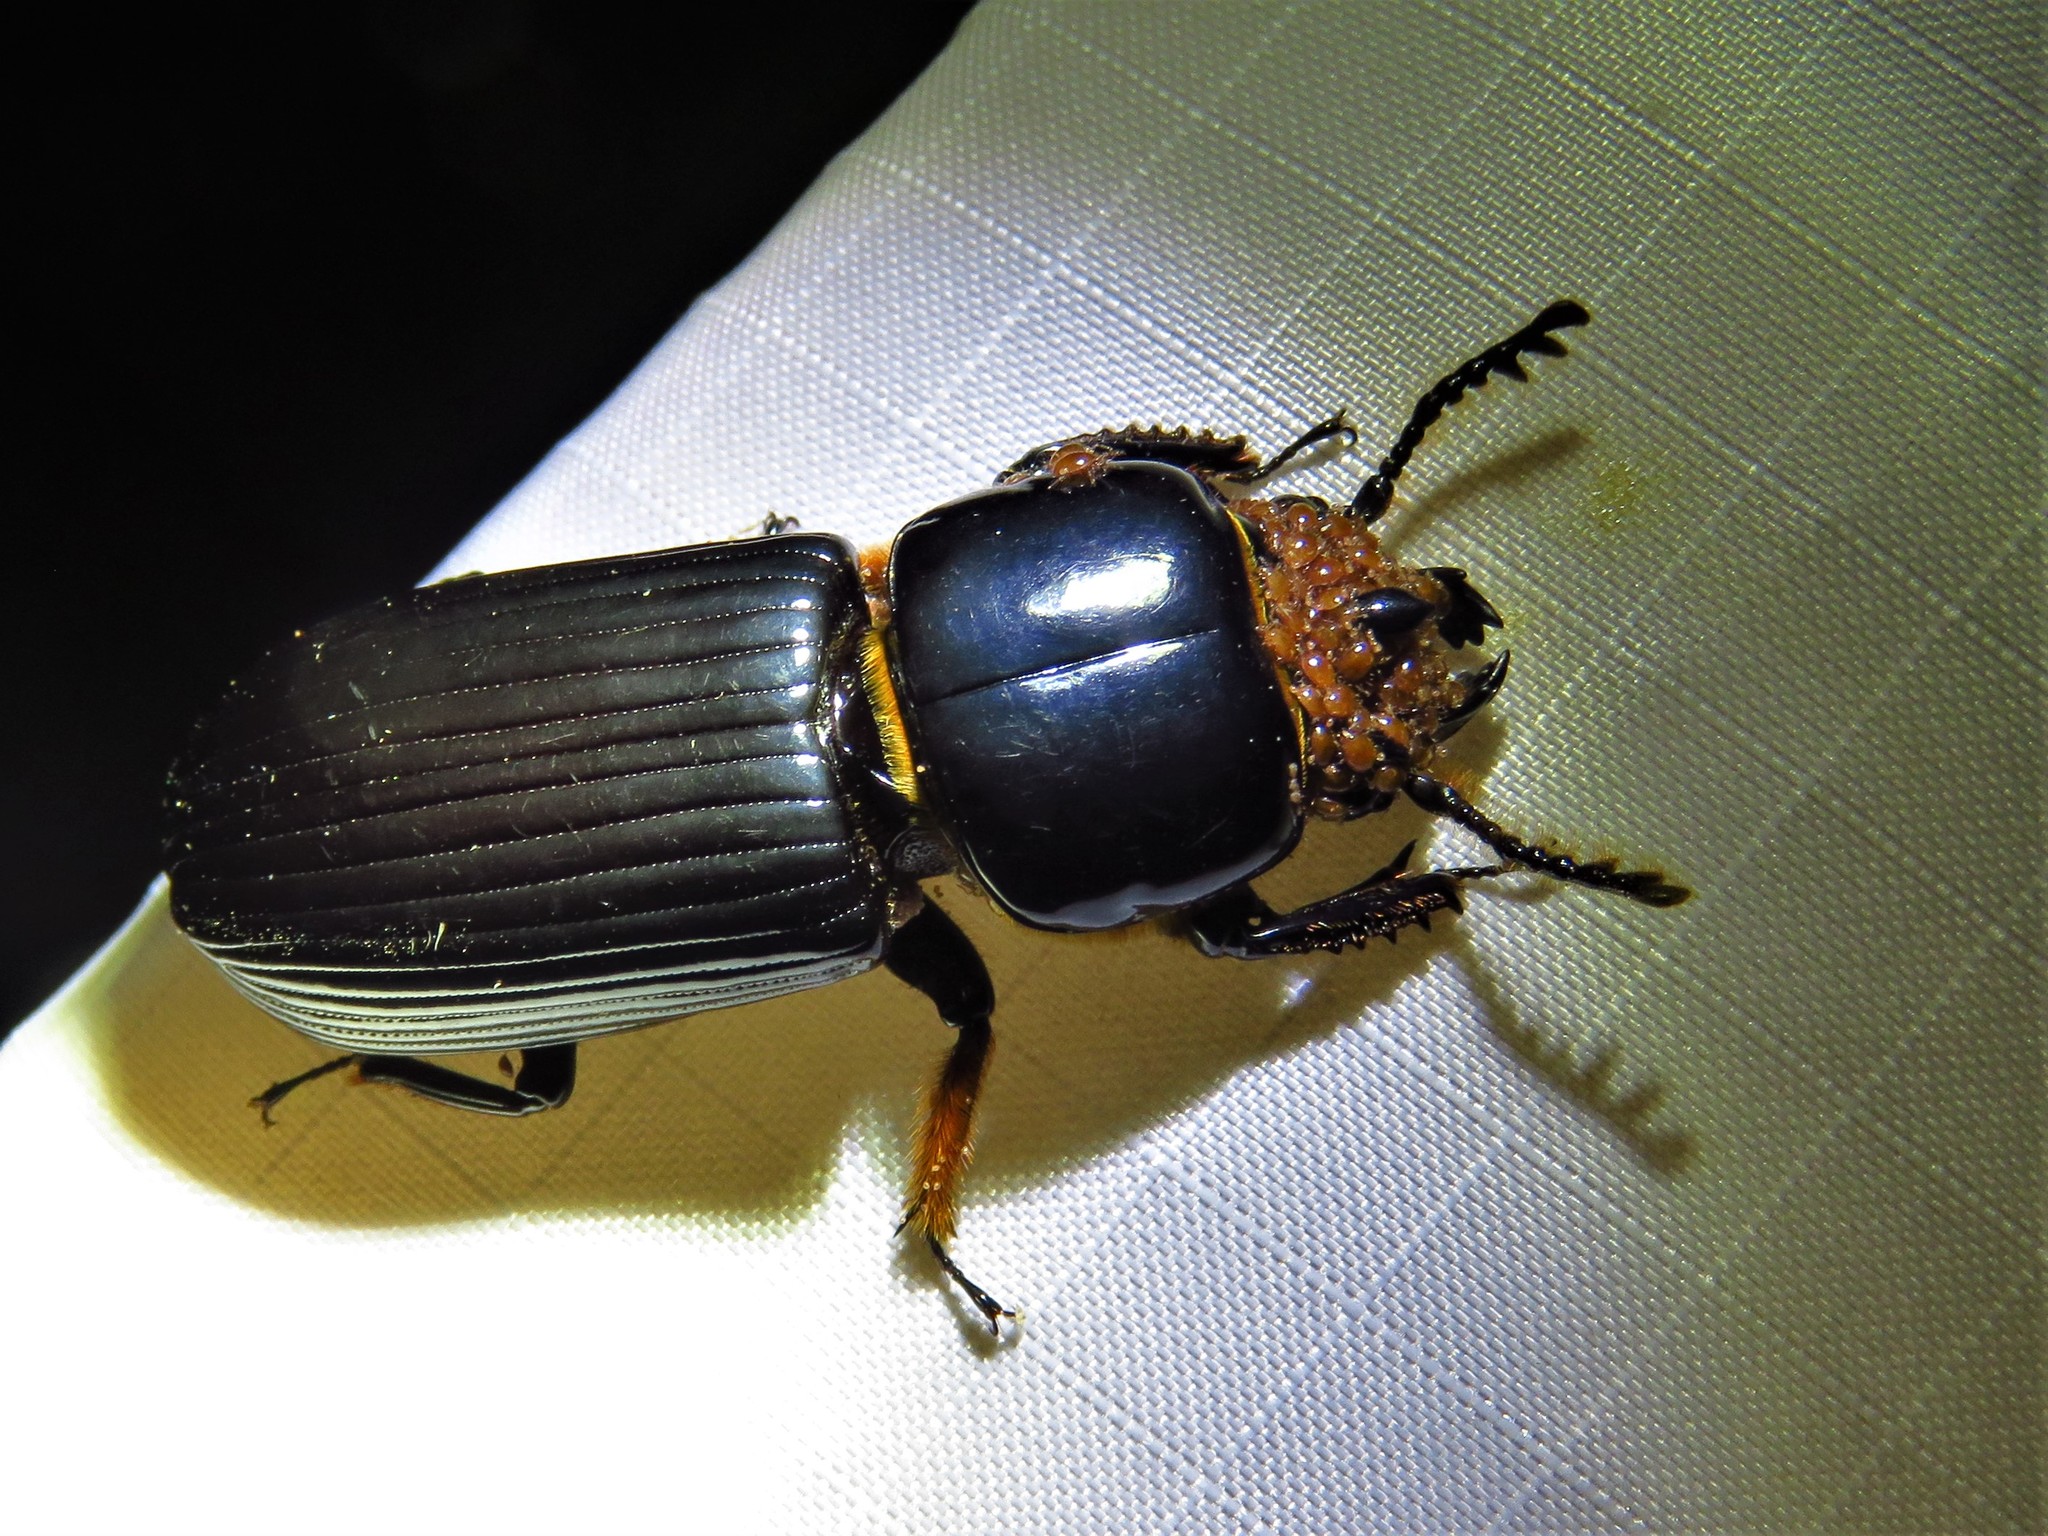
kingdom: Animalia
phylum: Arthropoda
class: Insecta
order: Coleoptera
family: Passalidae
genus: Odontotaenius
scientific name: Odontotaenius disjunctus
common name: Patent leather beetle
